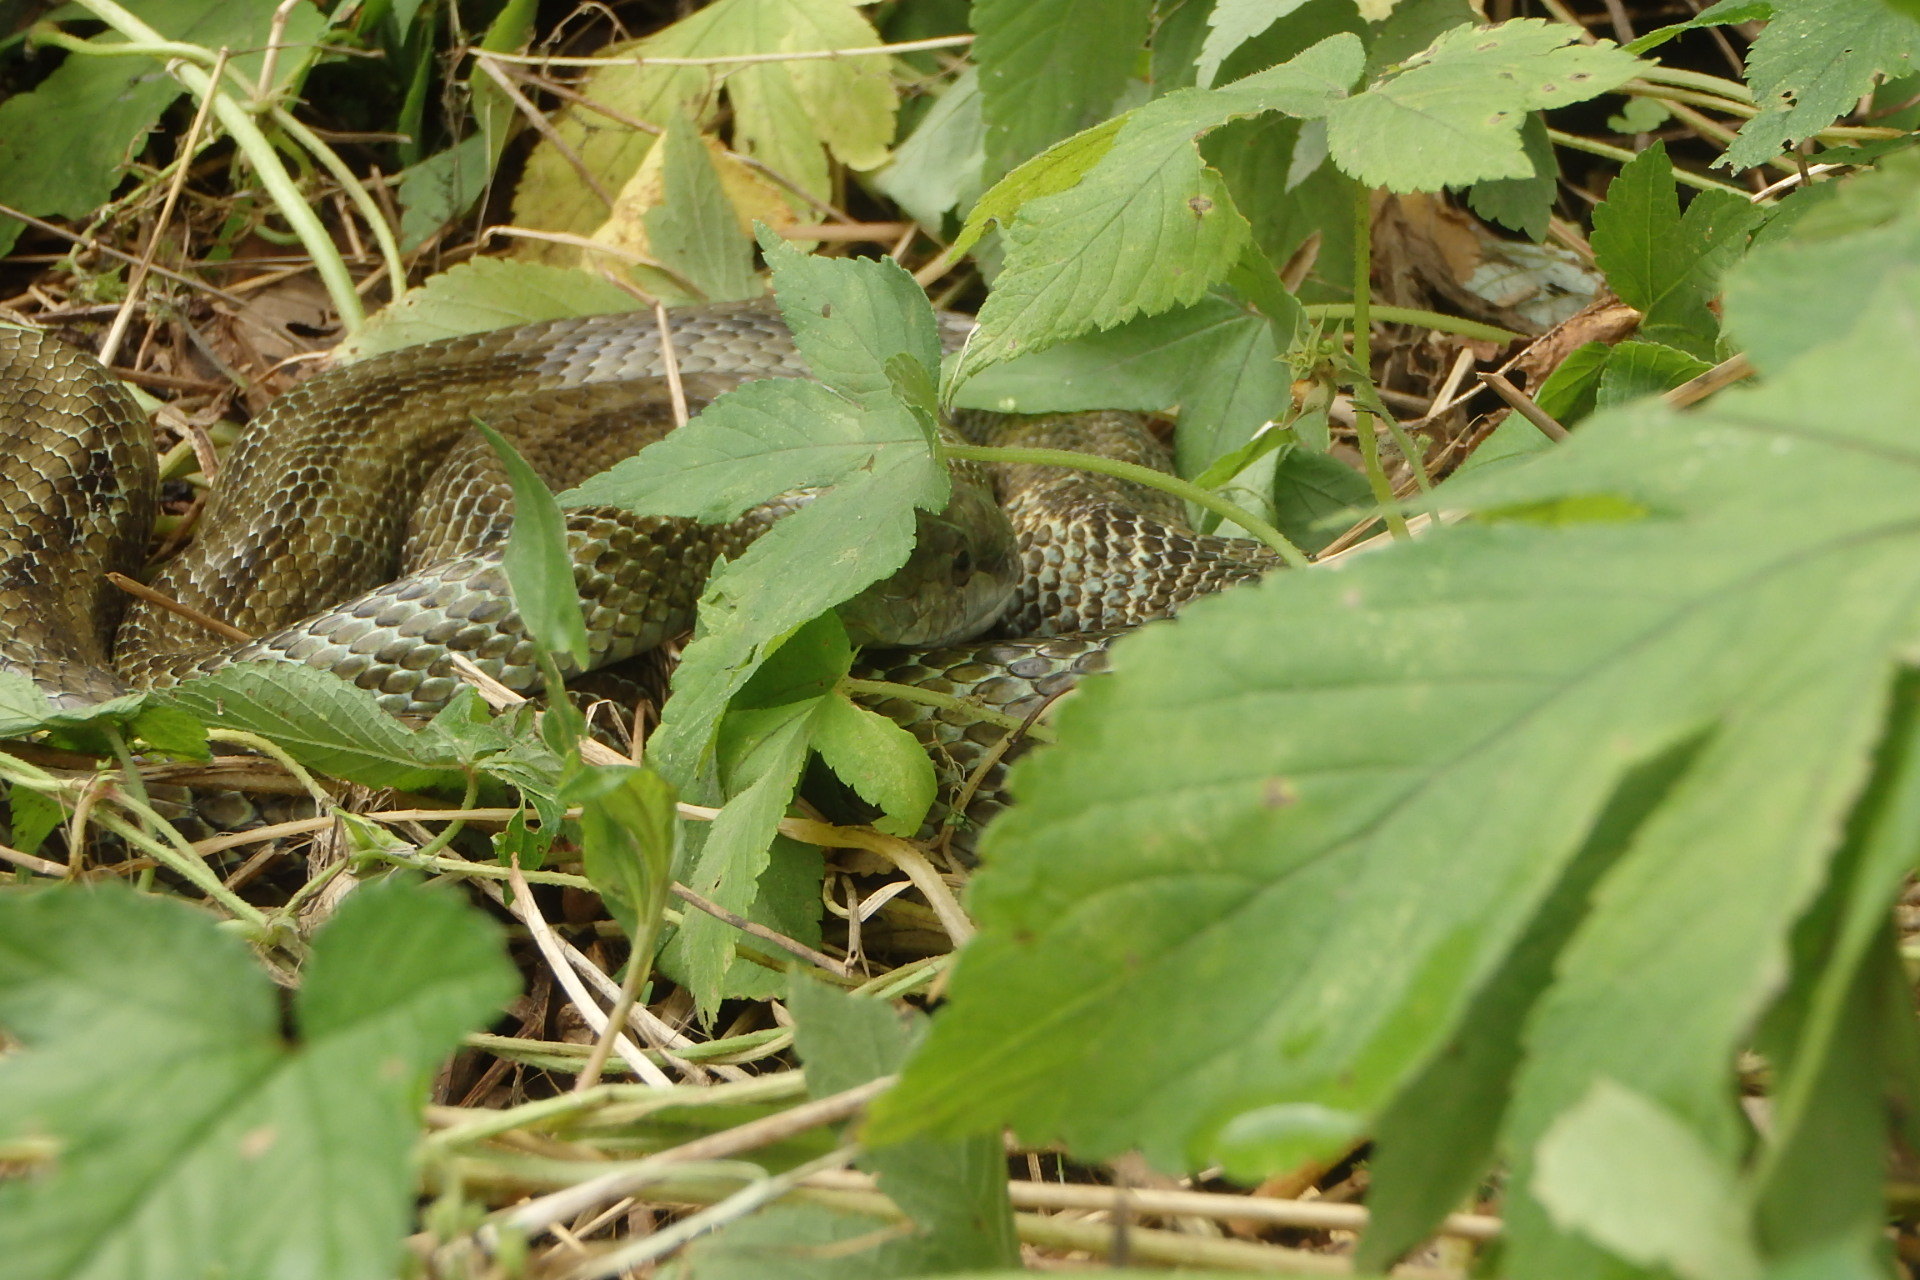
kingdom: Animalia
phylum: Chordata
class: Squamata
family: Colubridae
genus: Elaphe
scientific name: Elaphe climacophora
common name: Japanese ratsnake
